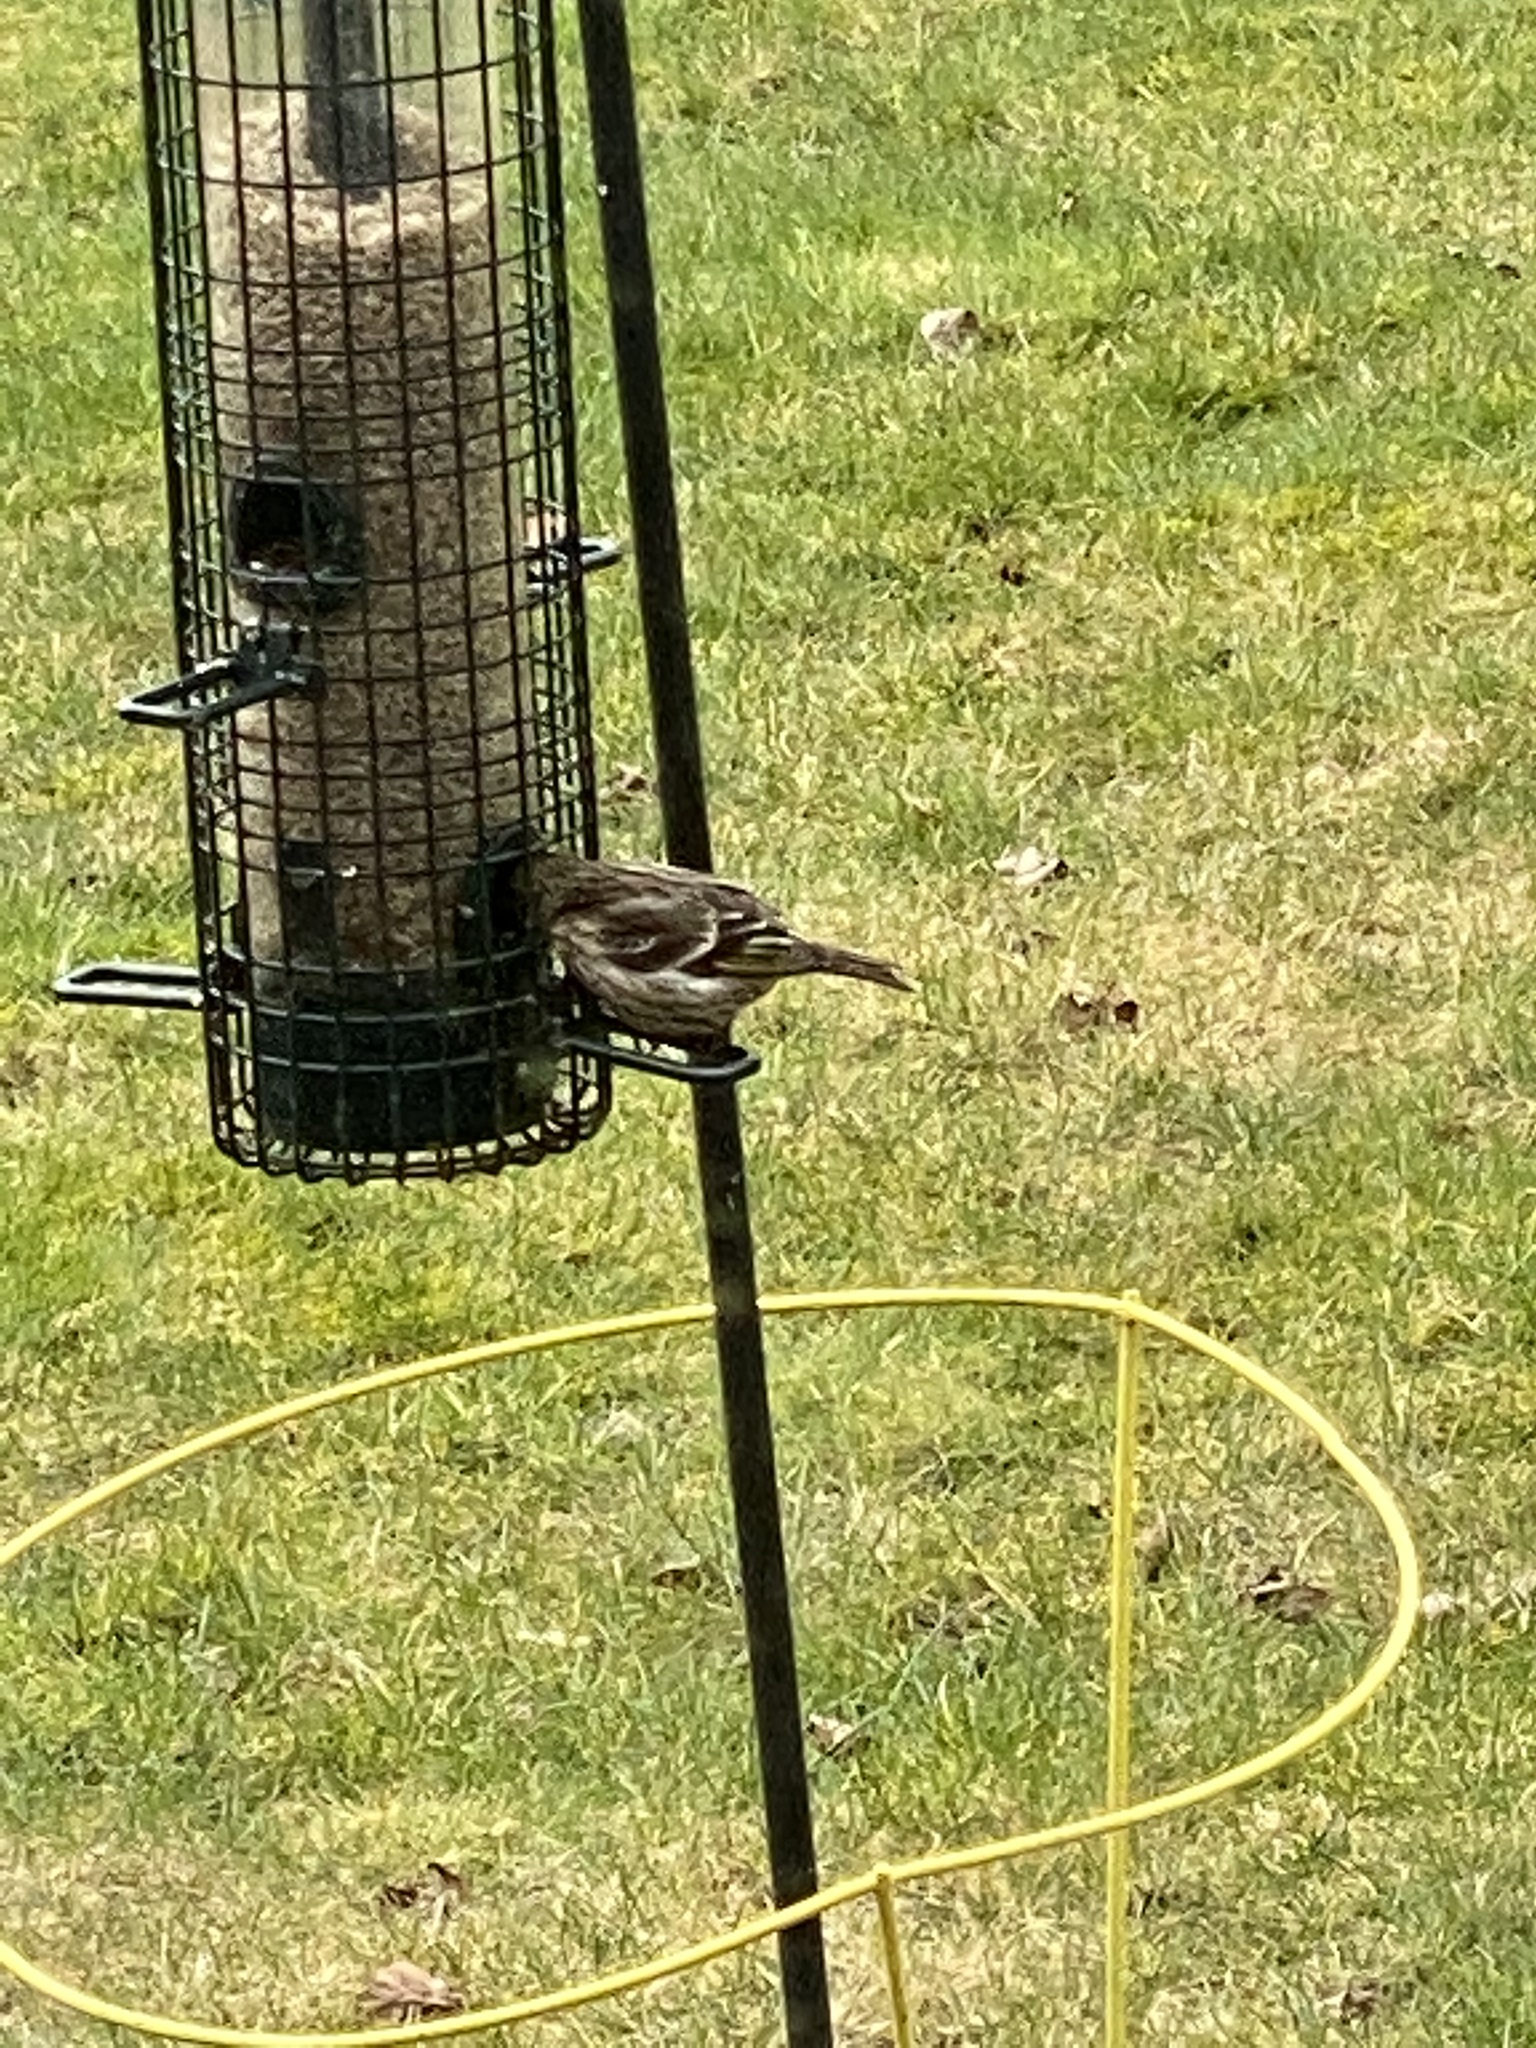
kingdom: Animalia
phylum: Chordata
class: Aves
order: Passeriformes
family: Fringillidae
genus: Spinus
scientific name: Spinus pinus
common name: Pine siskin
